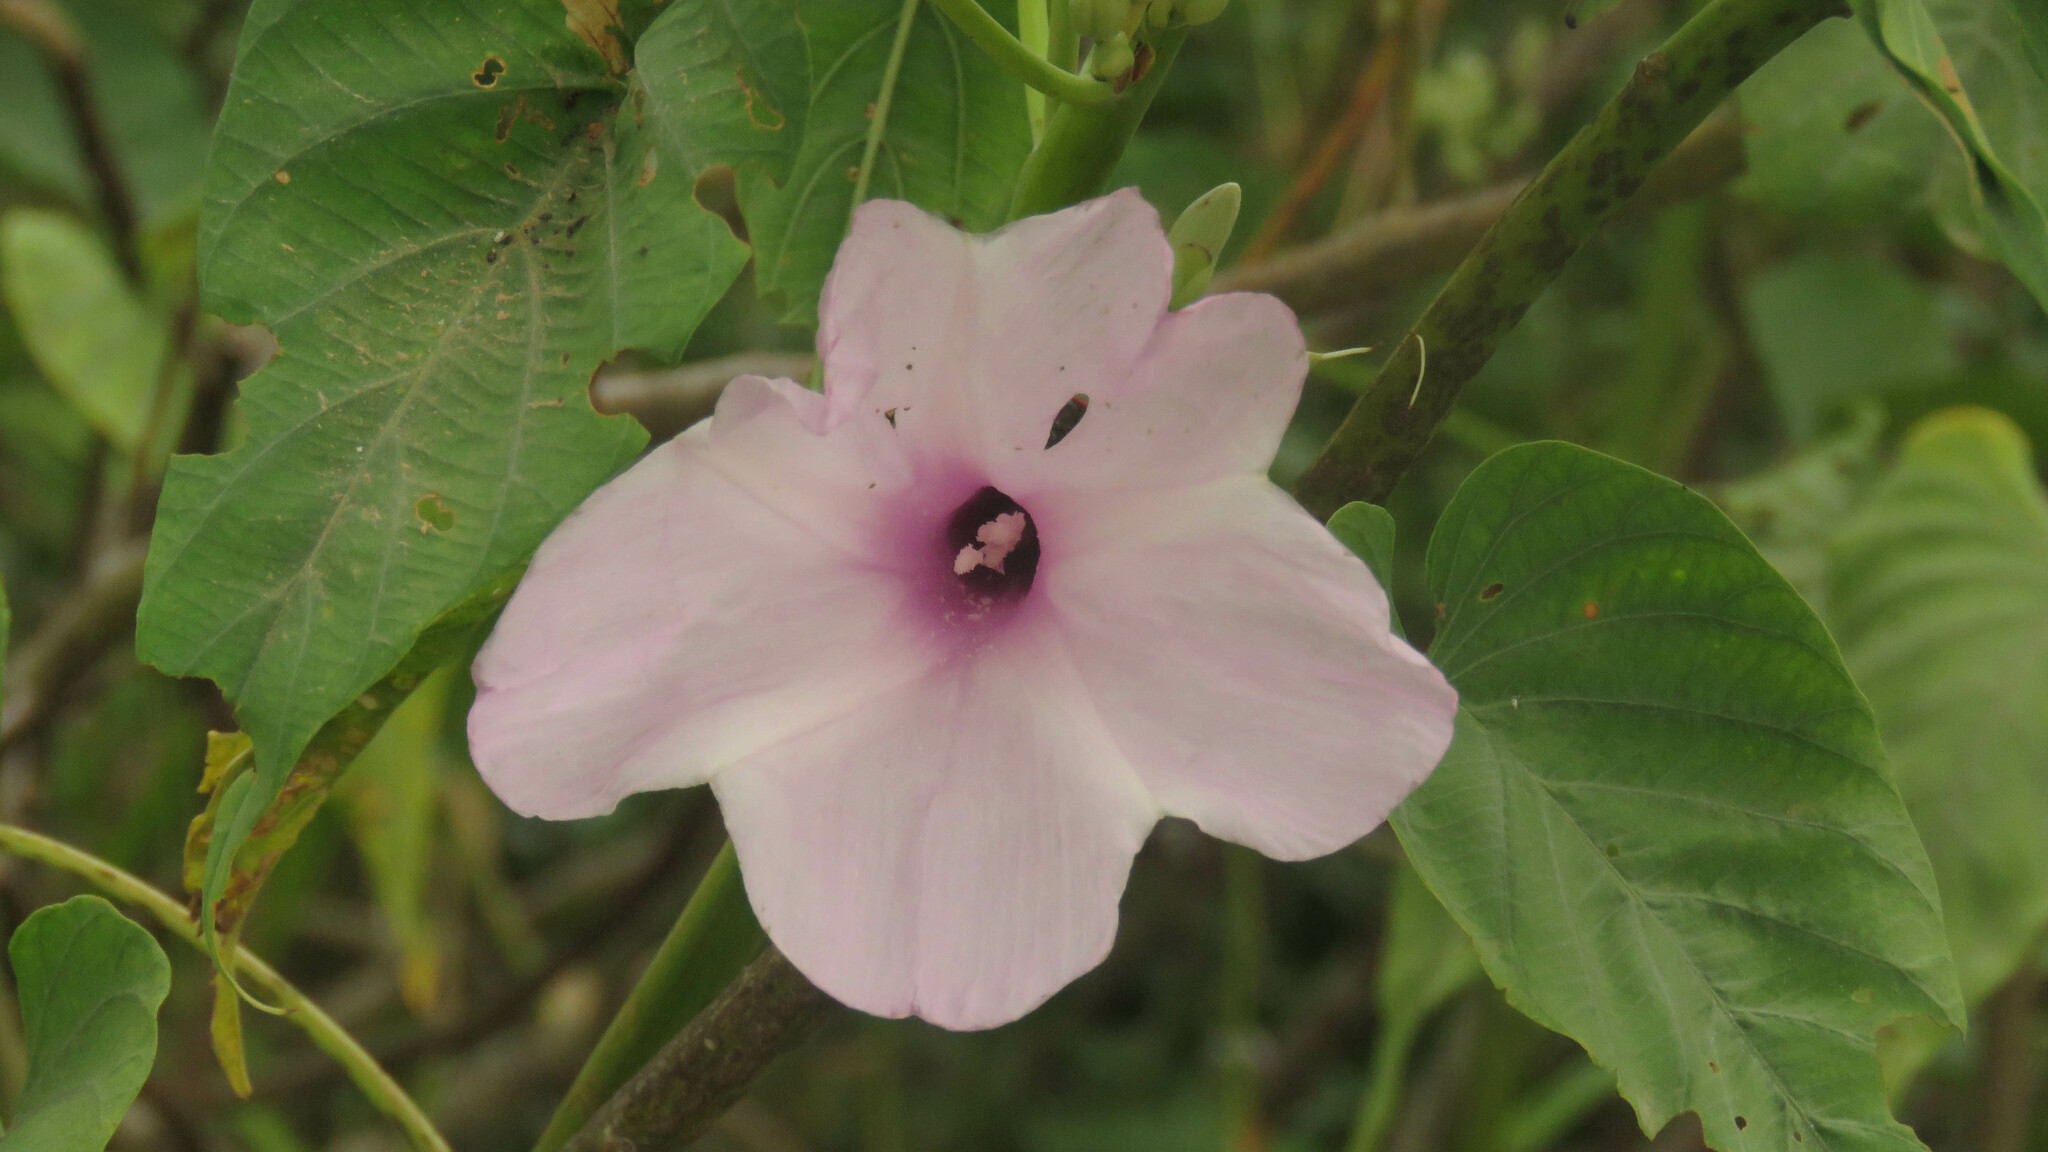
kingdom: Plantae
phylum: Tracheophyta
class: Magnoliopsida
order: Solanales
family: Convolvulaceae
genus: Ipomoea
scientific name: Ipomoea carnea
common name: Morning-glory
